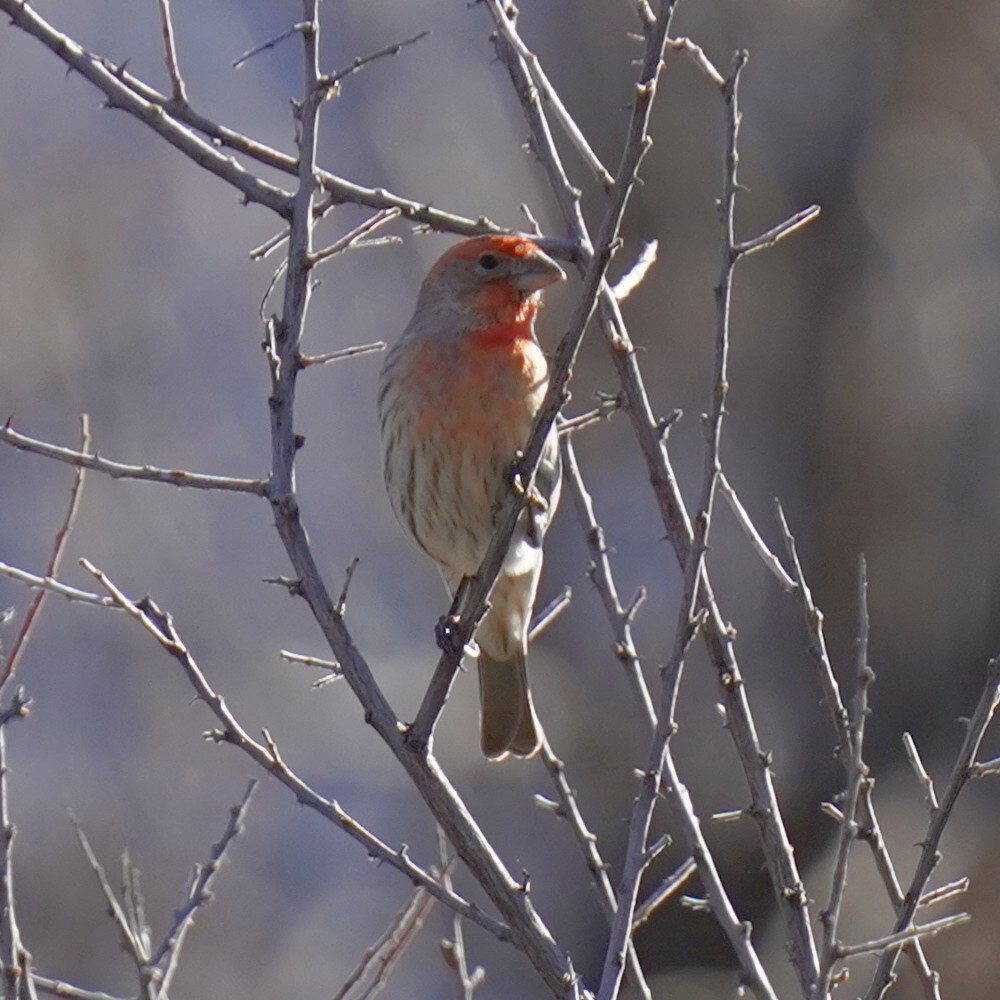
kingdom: Animalia
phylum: Chordata
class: Aves
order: Passeriformes
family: Fringillidae
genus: Haemorhous
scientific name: Haemorhous mexicanus
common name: House finch
